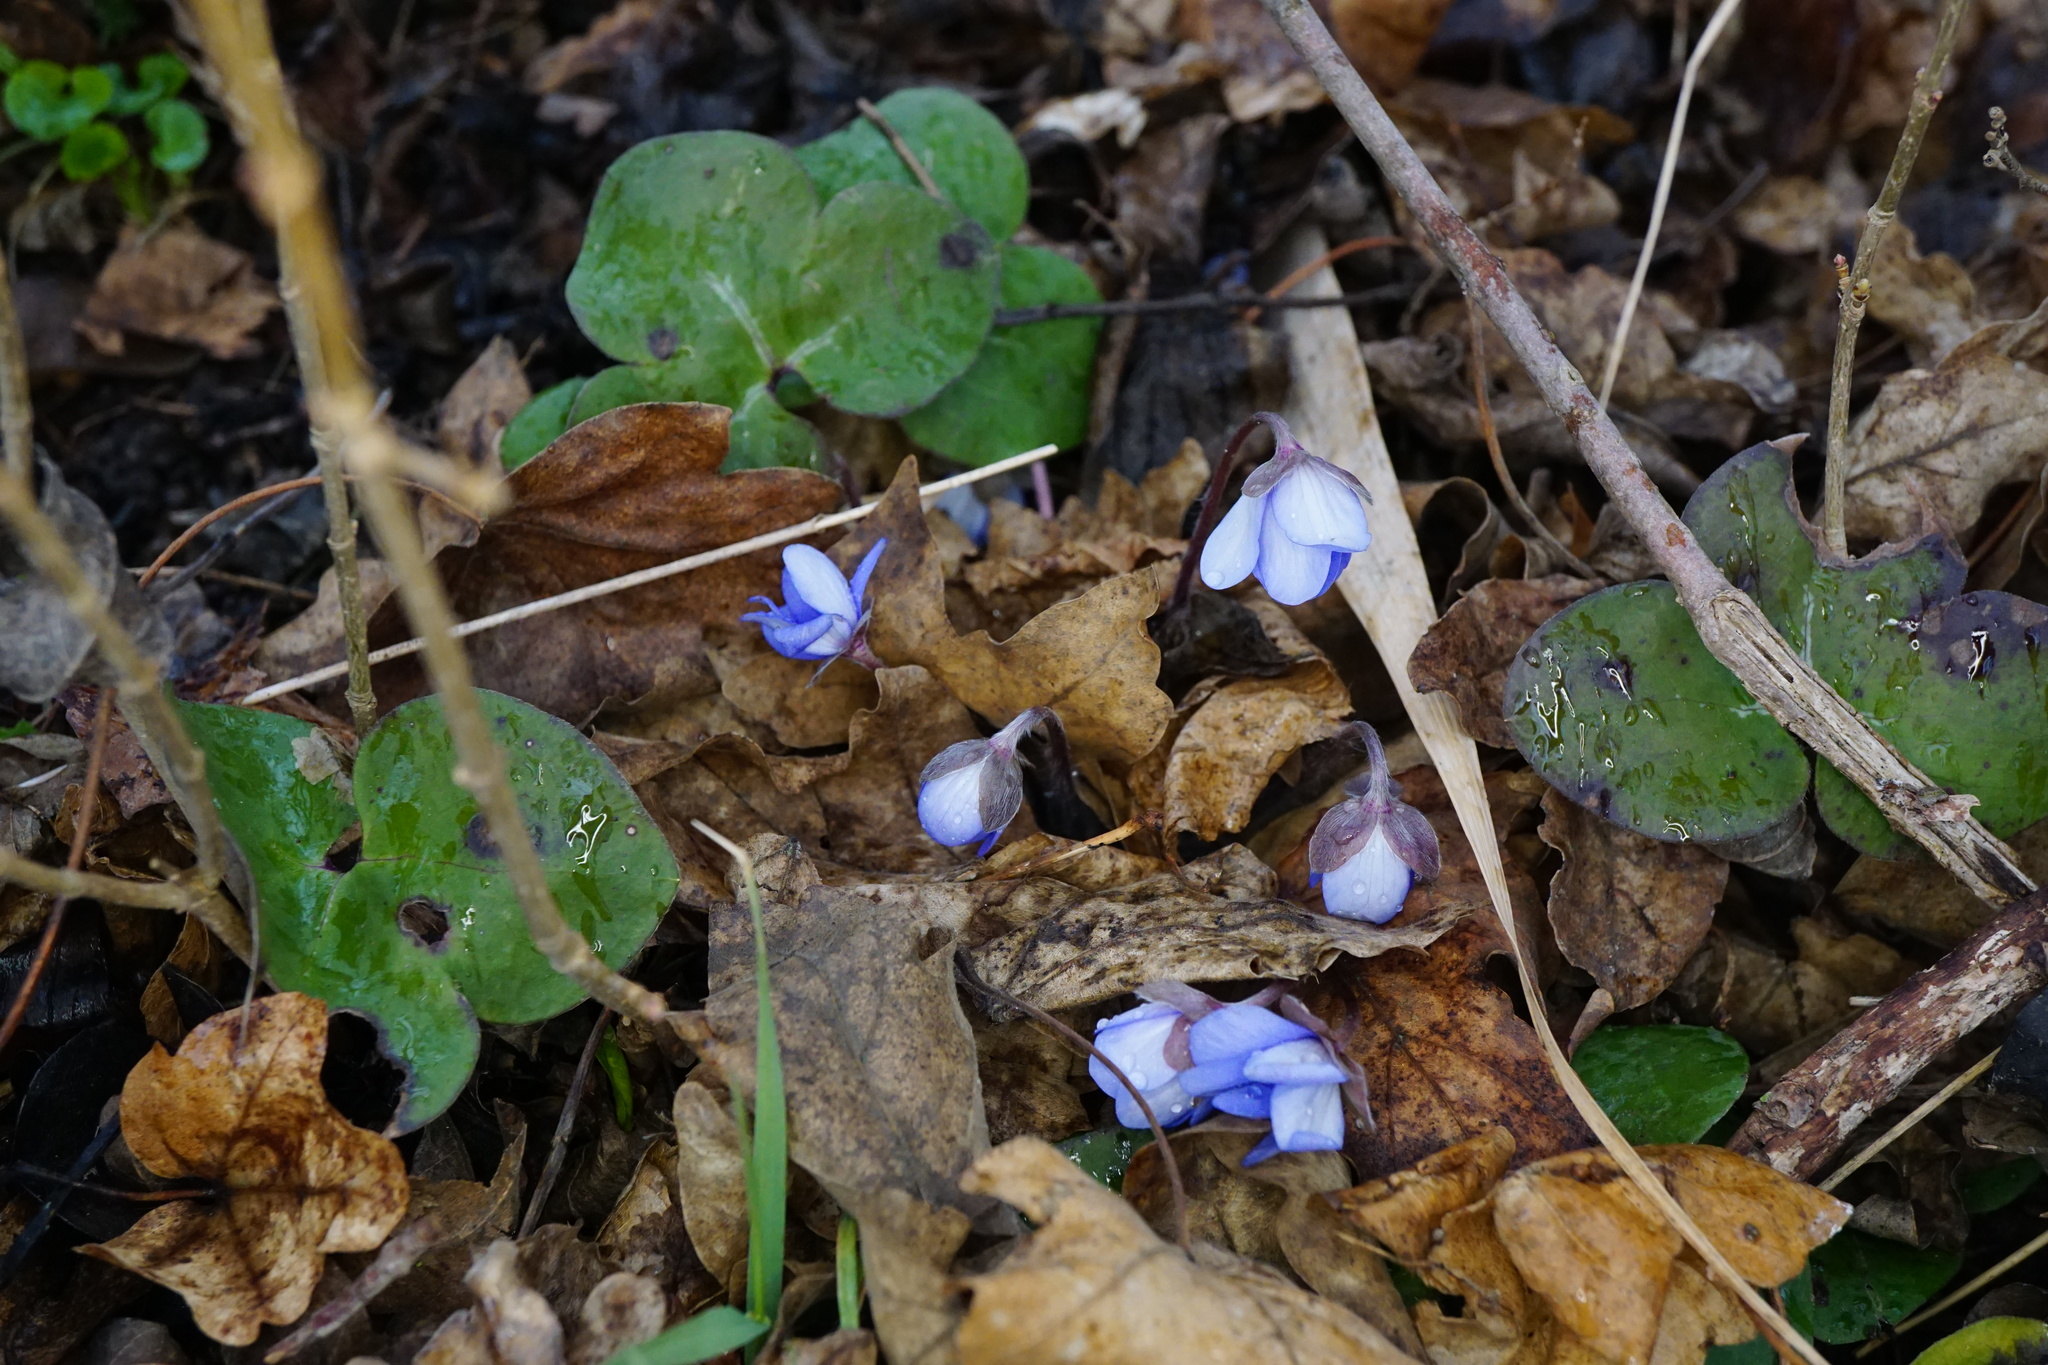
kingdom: Plantae
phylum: Tracheophyta
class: Magnoliopsida
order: Ranunculales
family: Ranunculaceae
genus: Hepatica
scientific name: Hepatica nobilis
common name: Liverleaf
